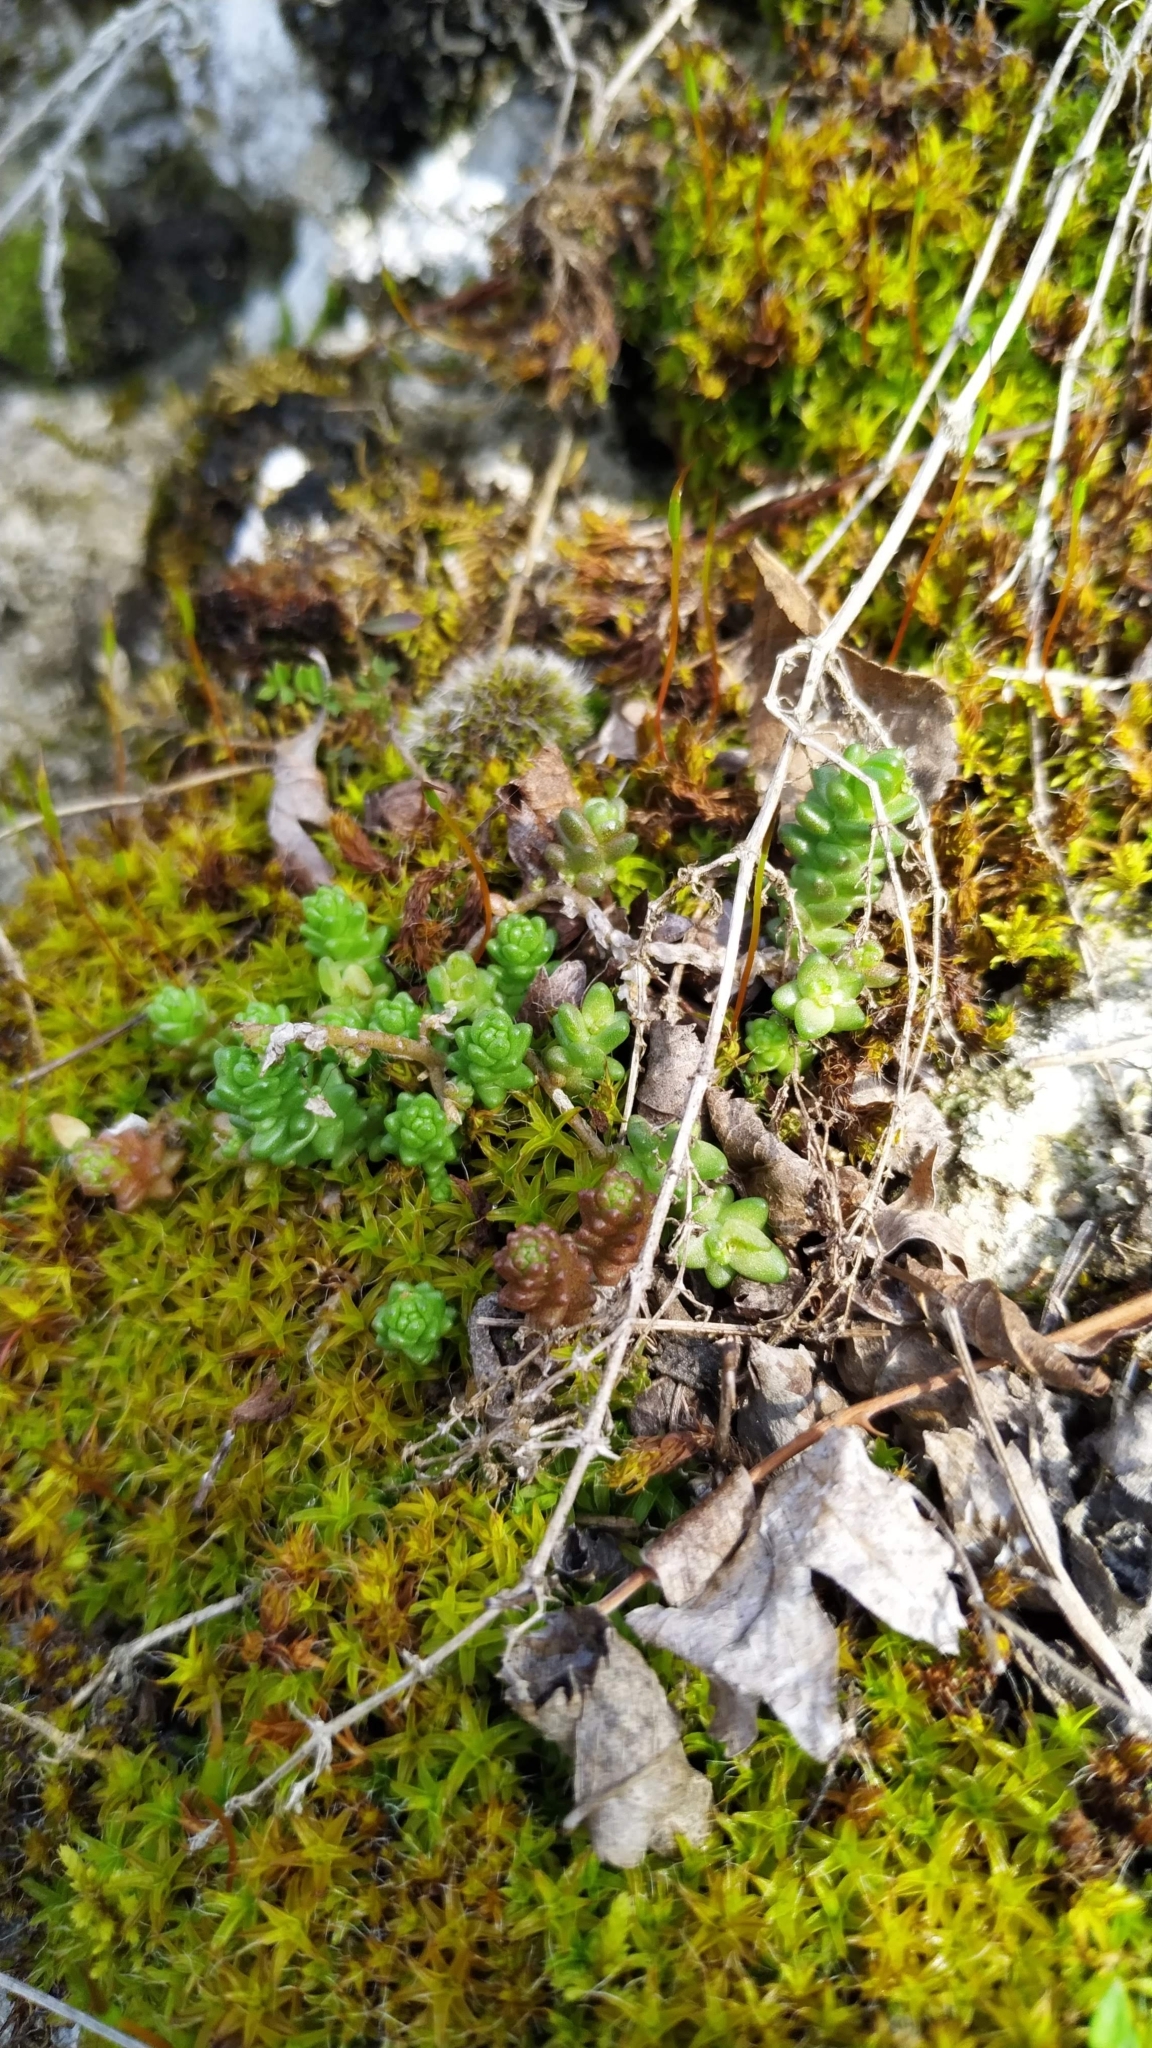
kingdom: Plantae
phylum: Tracheophyta
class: Magnoliopsida
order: Saxifragales
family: Crassulaceae
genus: Sedum
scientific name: Sedum acre
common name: Biting stonecrop
